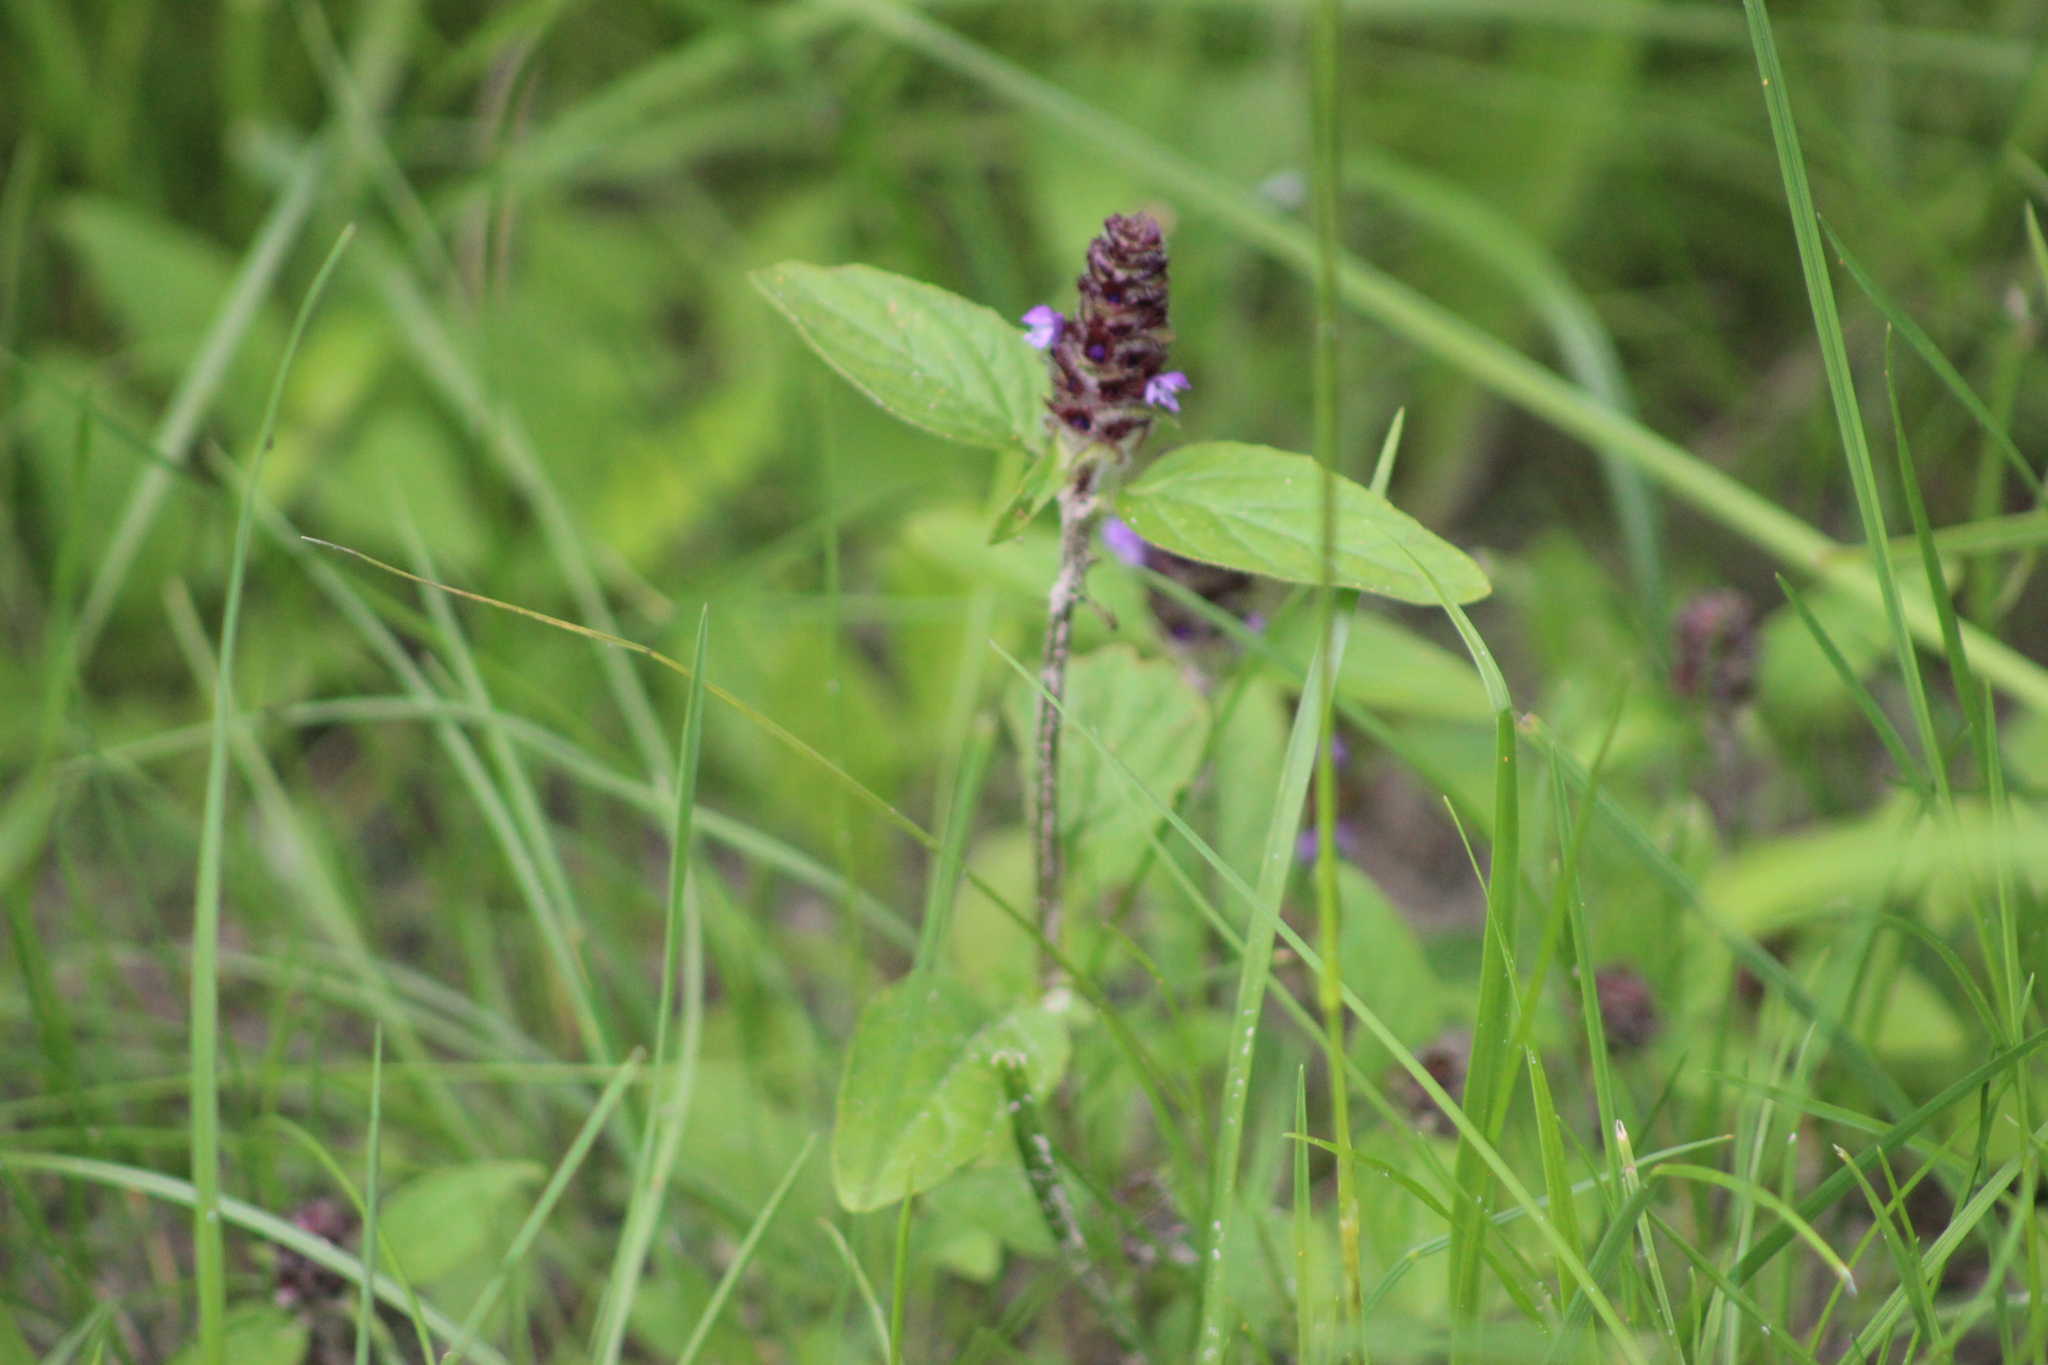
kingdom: Plantae
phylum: Tracheophyta
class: Magnoliopsida
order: Lamiales
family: Lamiaceae
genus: Prunella
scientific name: Prunella vulgaris
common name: Heal-all
